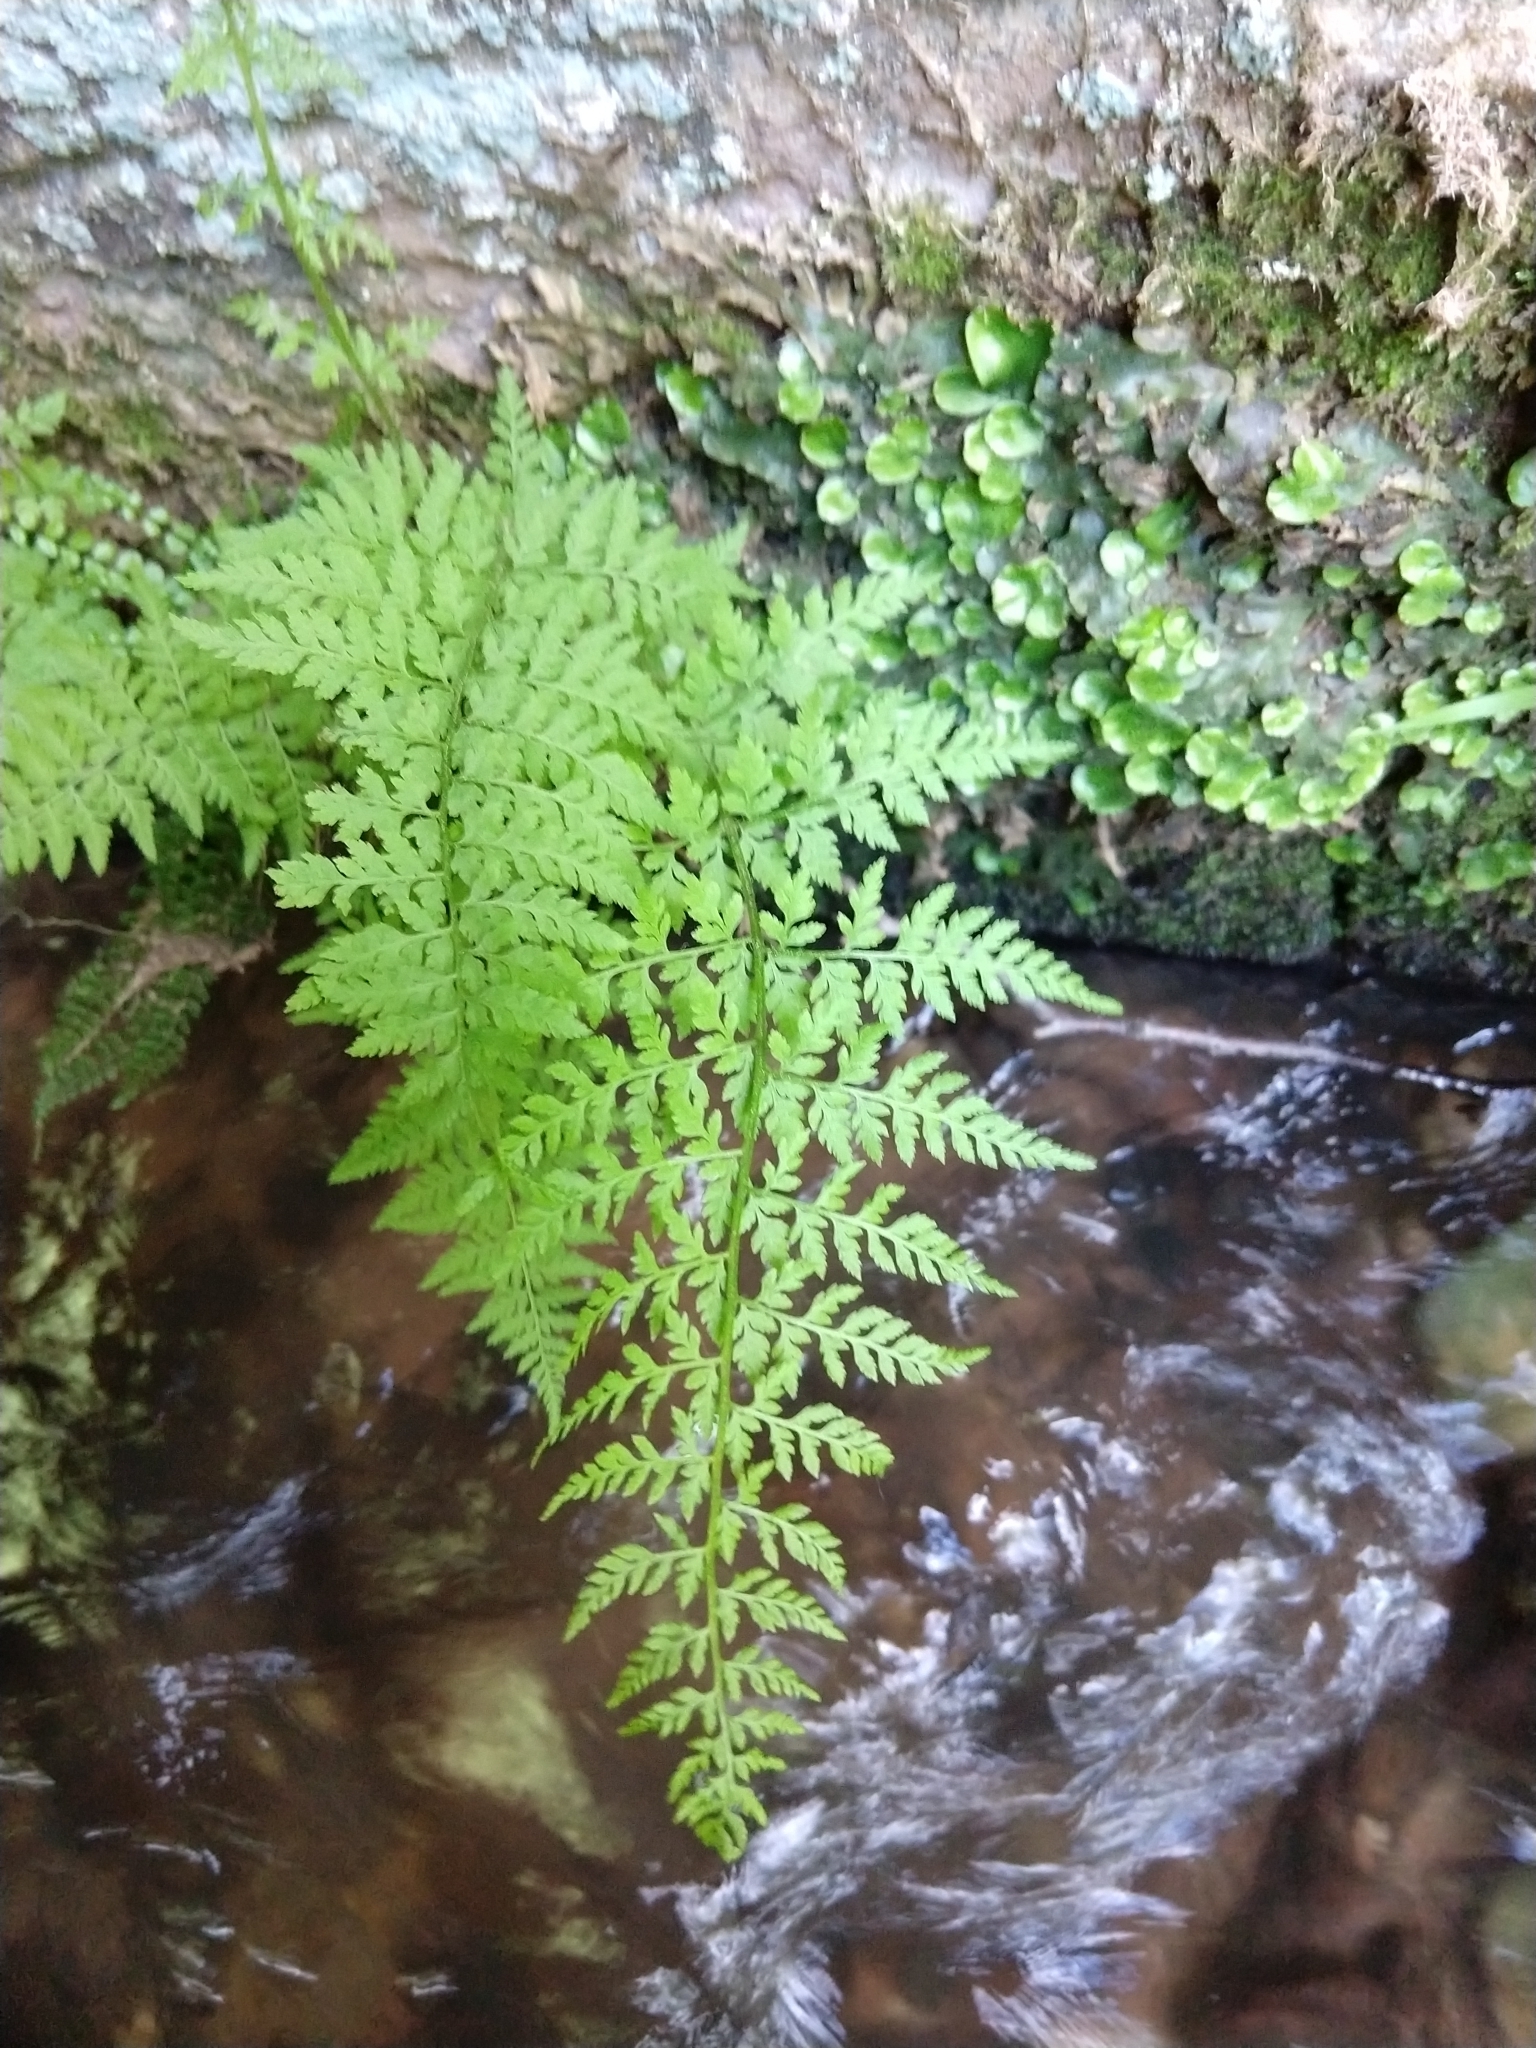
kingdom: Plantae
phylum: Tracheophyta
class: Polypodiopsida
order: Polypodiales
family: Cystopteridaceae
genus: Cystopteris
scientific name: Cystopteris fragilis
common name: Brittle bladder fern
